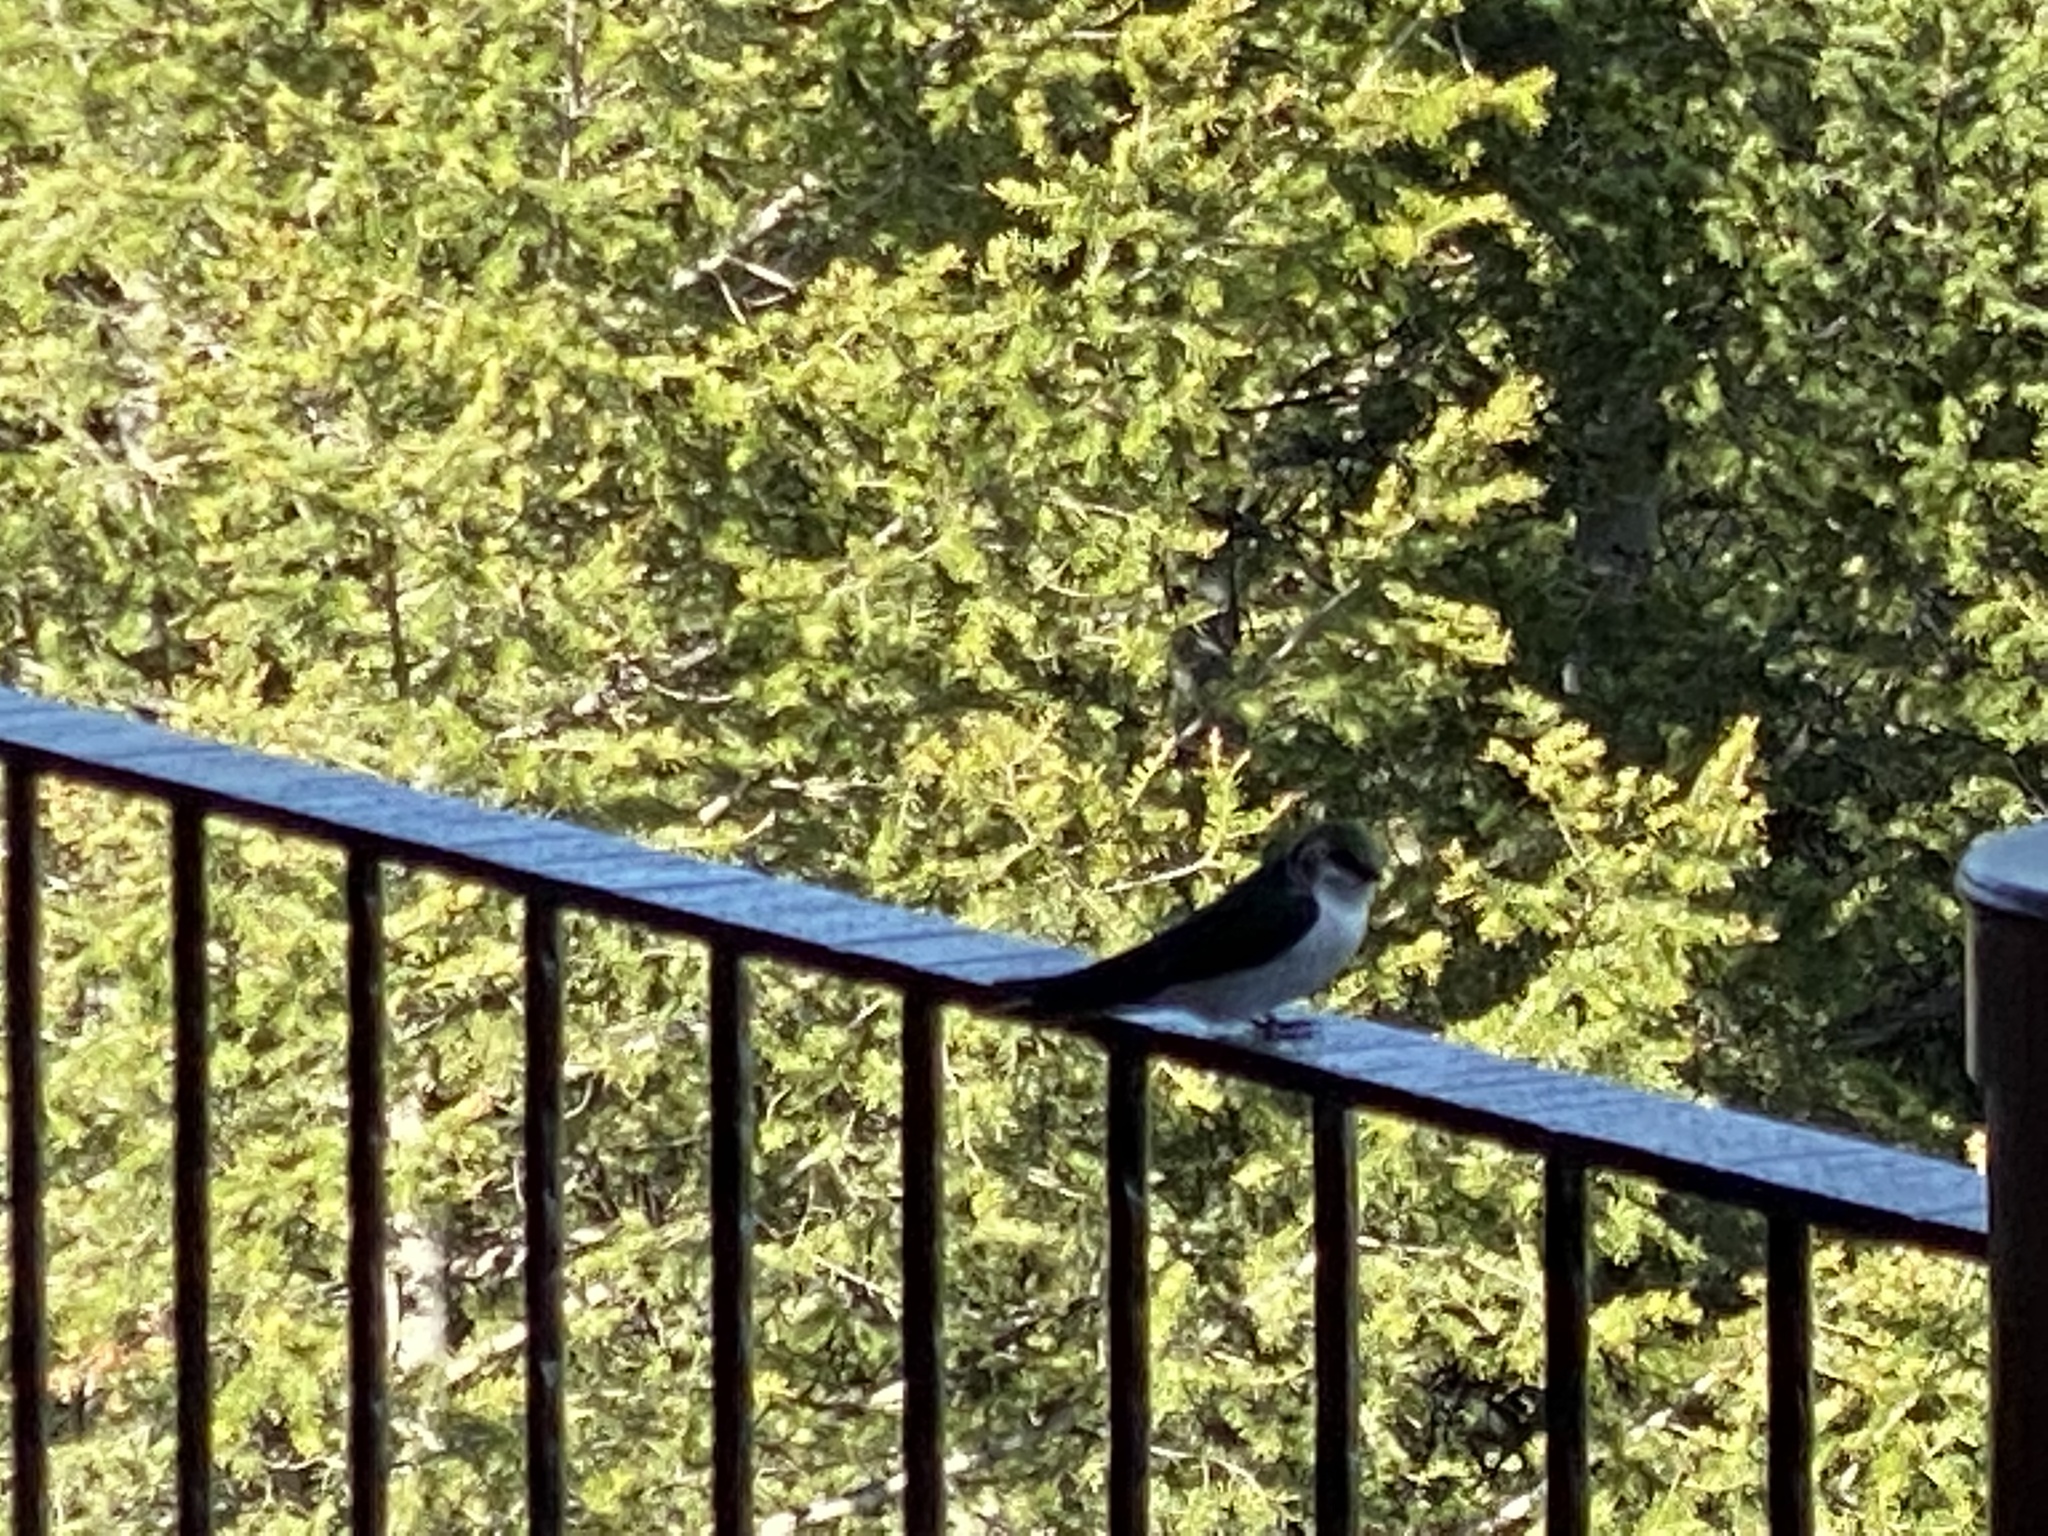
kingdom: Animalia
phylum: Chordata
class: Aves
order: Passeriformes
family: Hirundinidae
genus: Tachycineta
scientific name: Tachycineta thalassina
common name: Violet-green swallow
